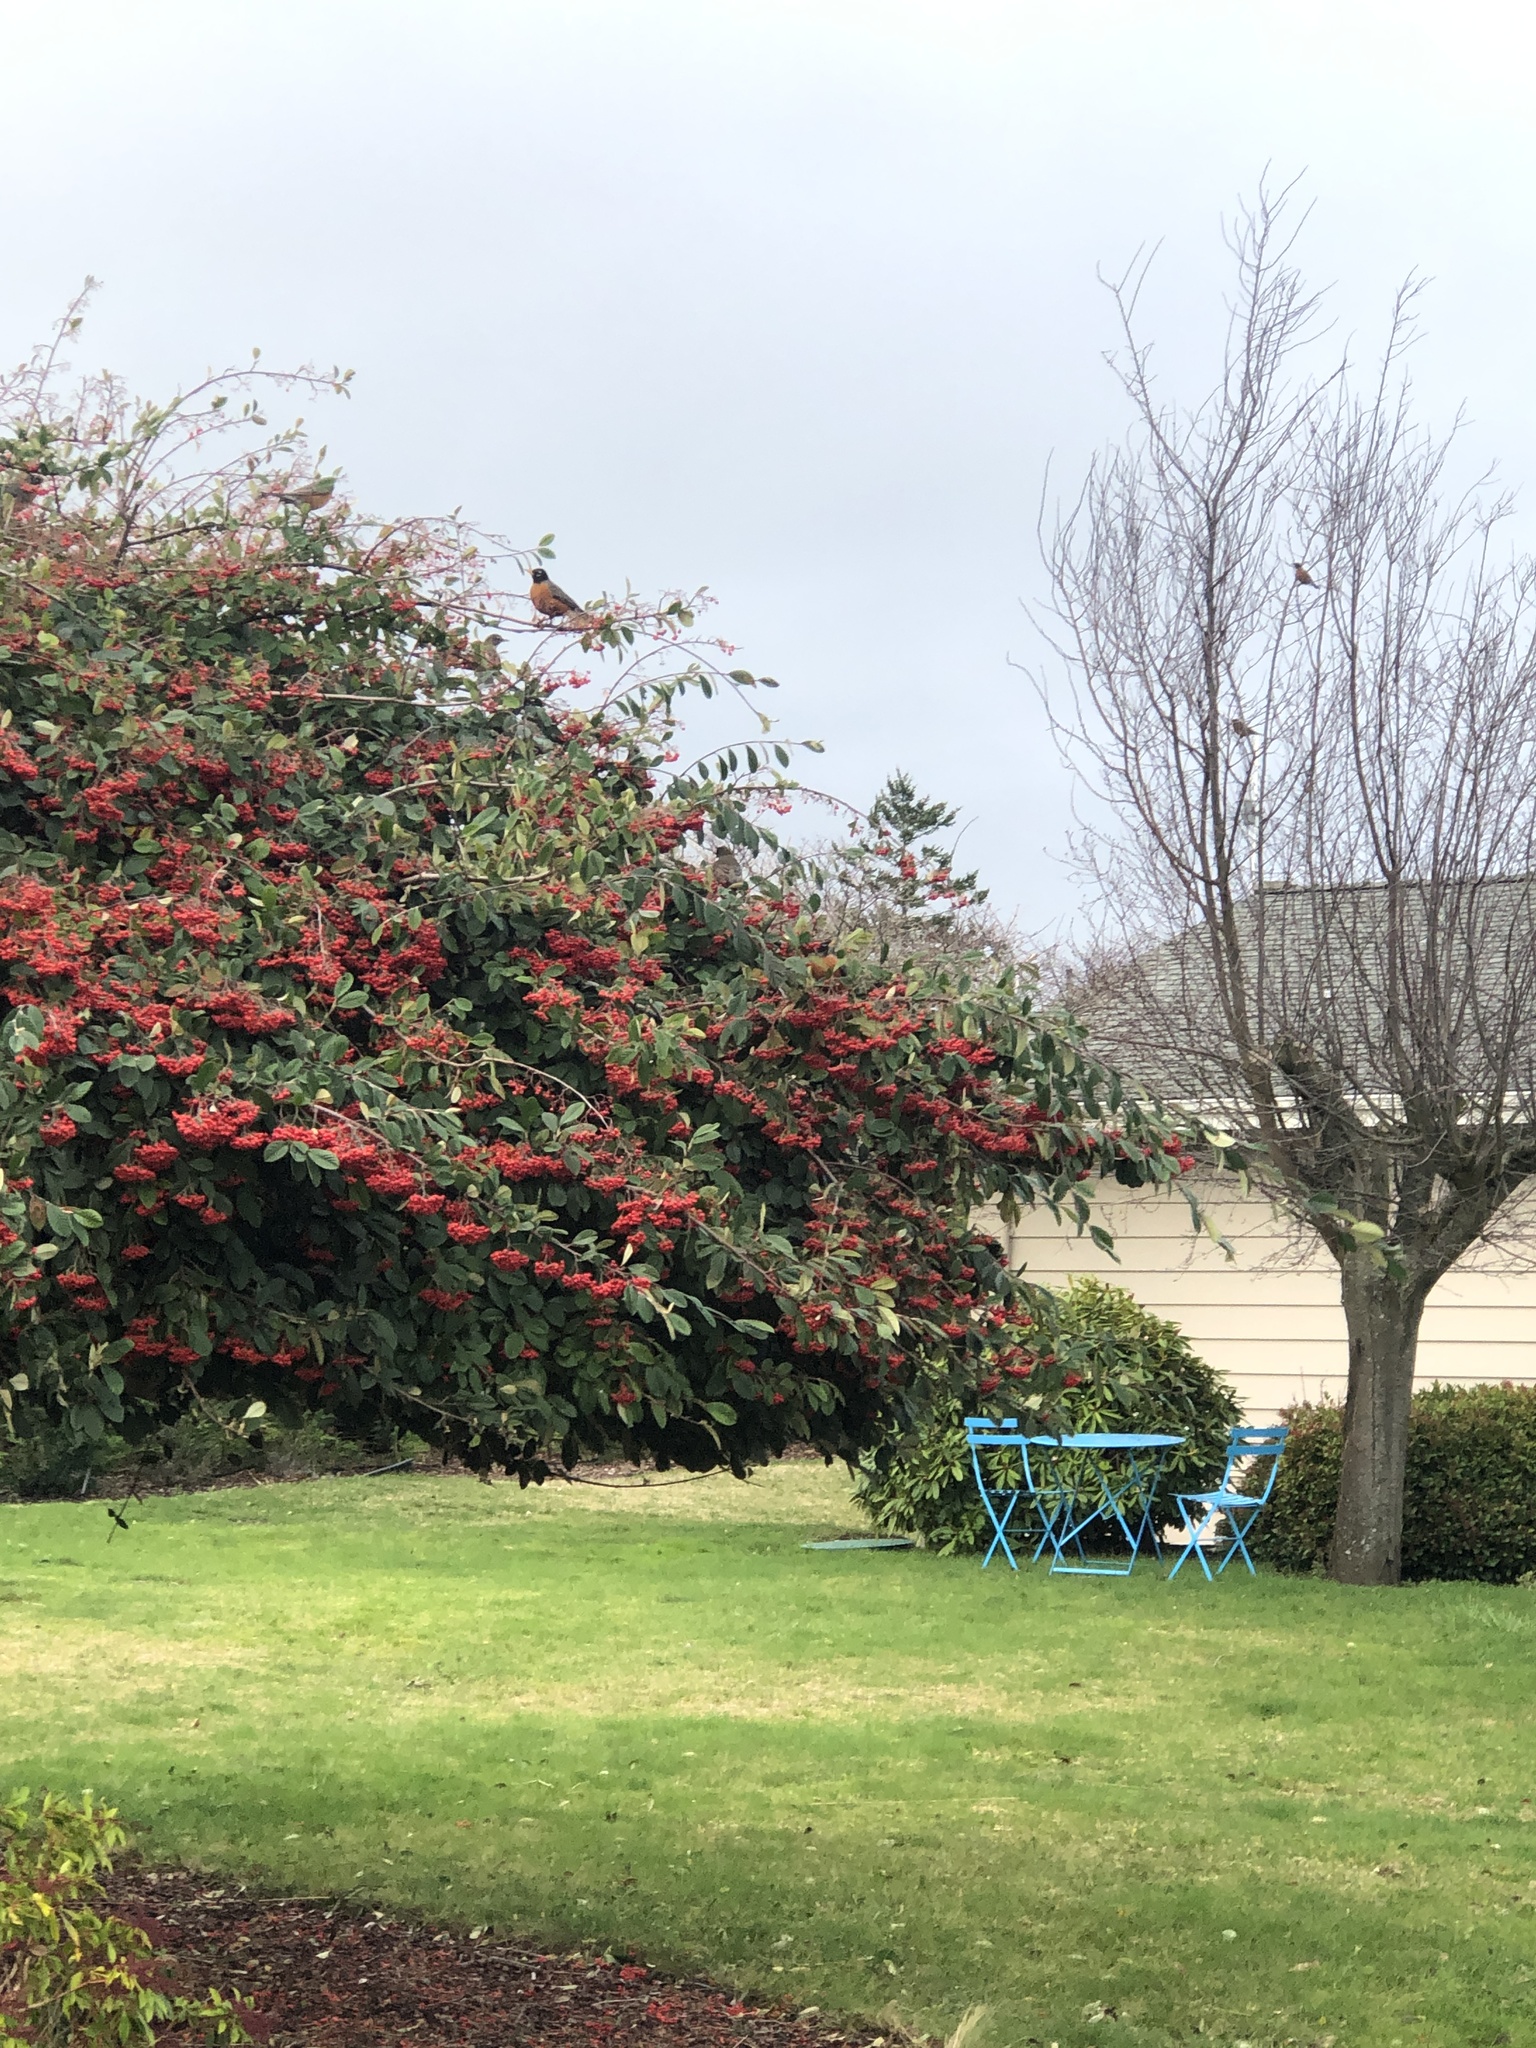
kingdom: Animalia
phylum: Chordata
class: Aves
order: Passeriformes
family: Turdidae
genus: Turdus
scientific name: Turdus migratorius
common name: American robin
